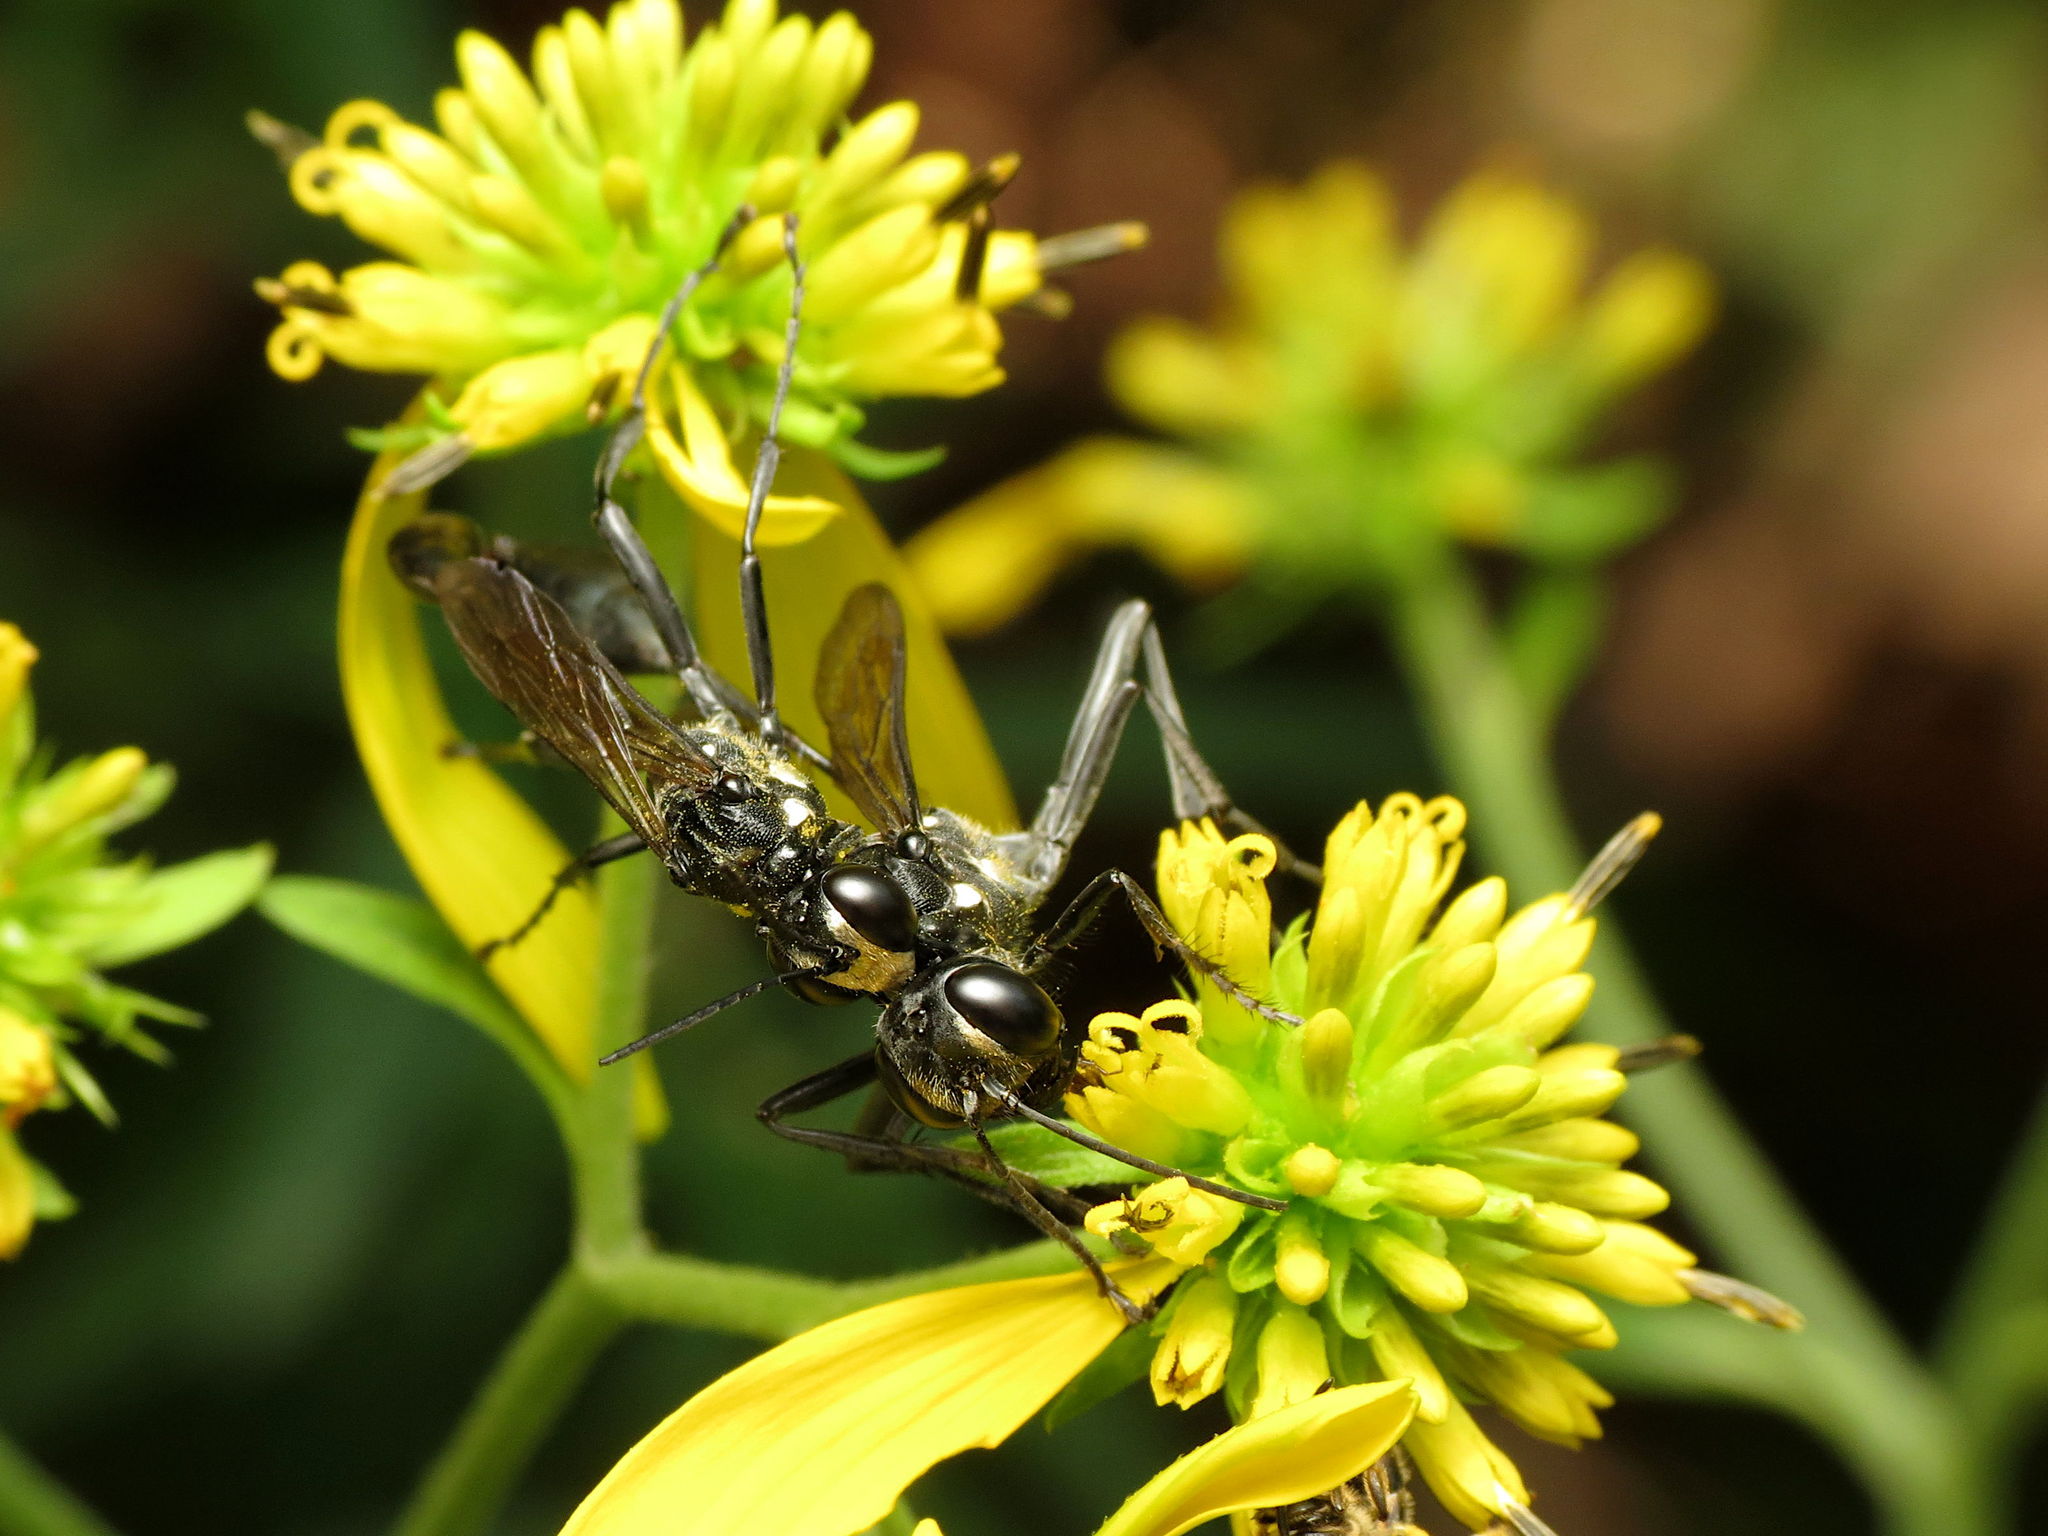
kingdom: Animalia
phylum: Arthropoda
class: Insecta
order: Hymenoptera
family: Sphecidae
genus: Eremnophila
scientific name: Eremnophila aureonotata
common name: Gold-marked thread-waisted wasp
